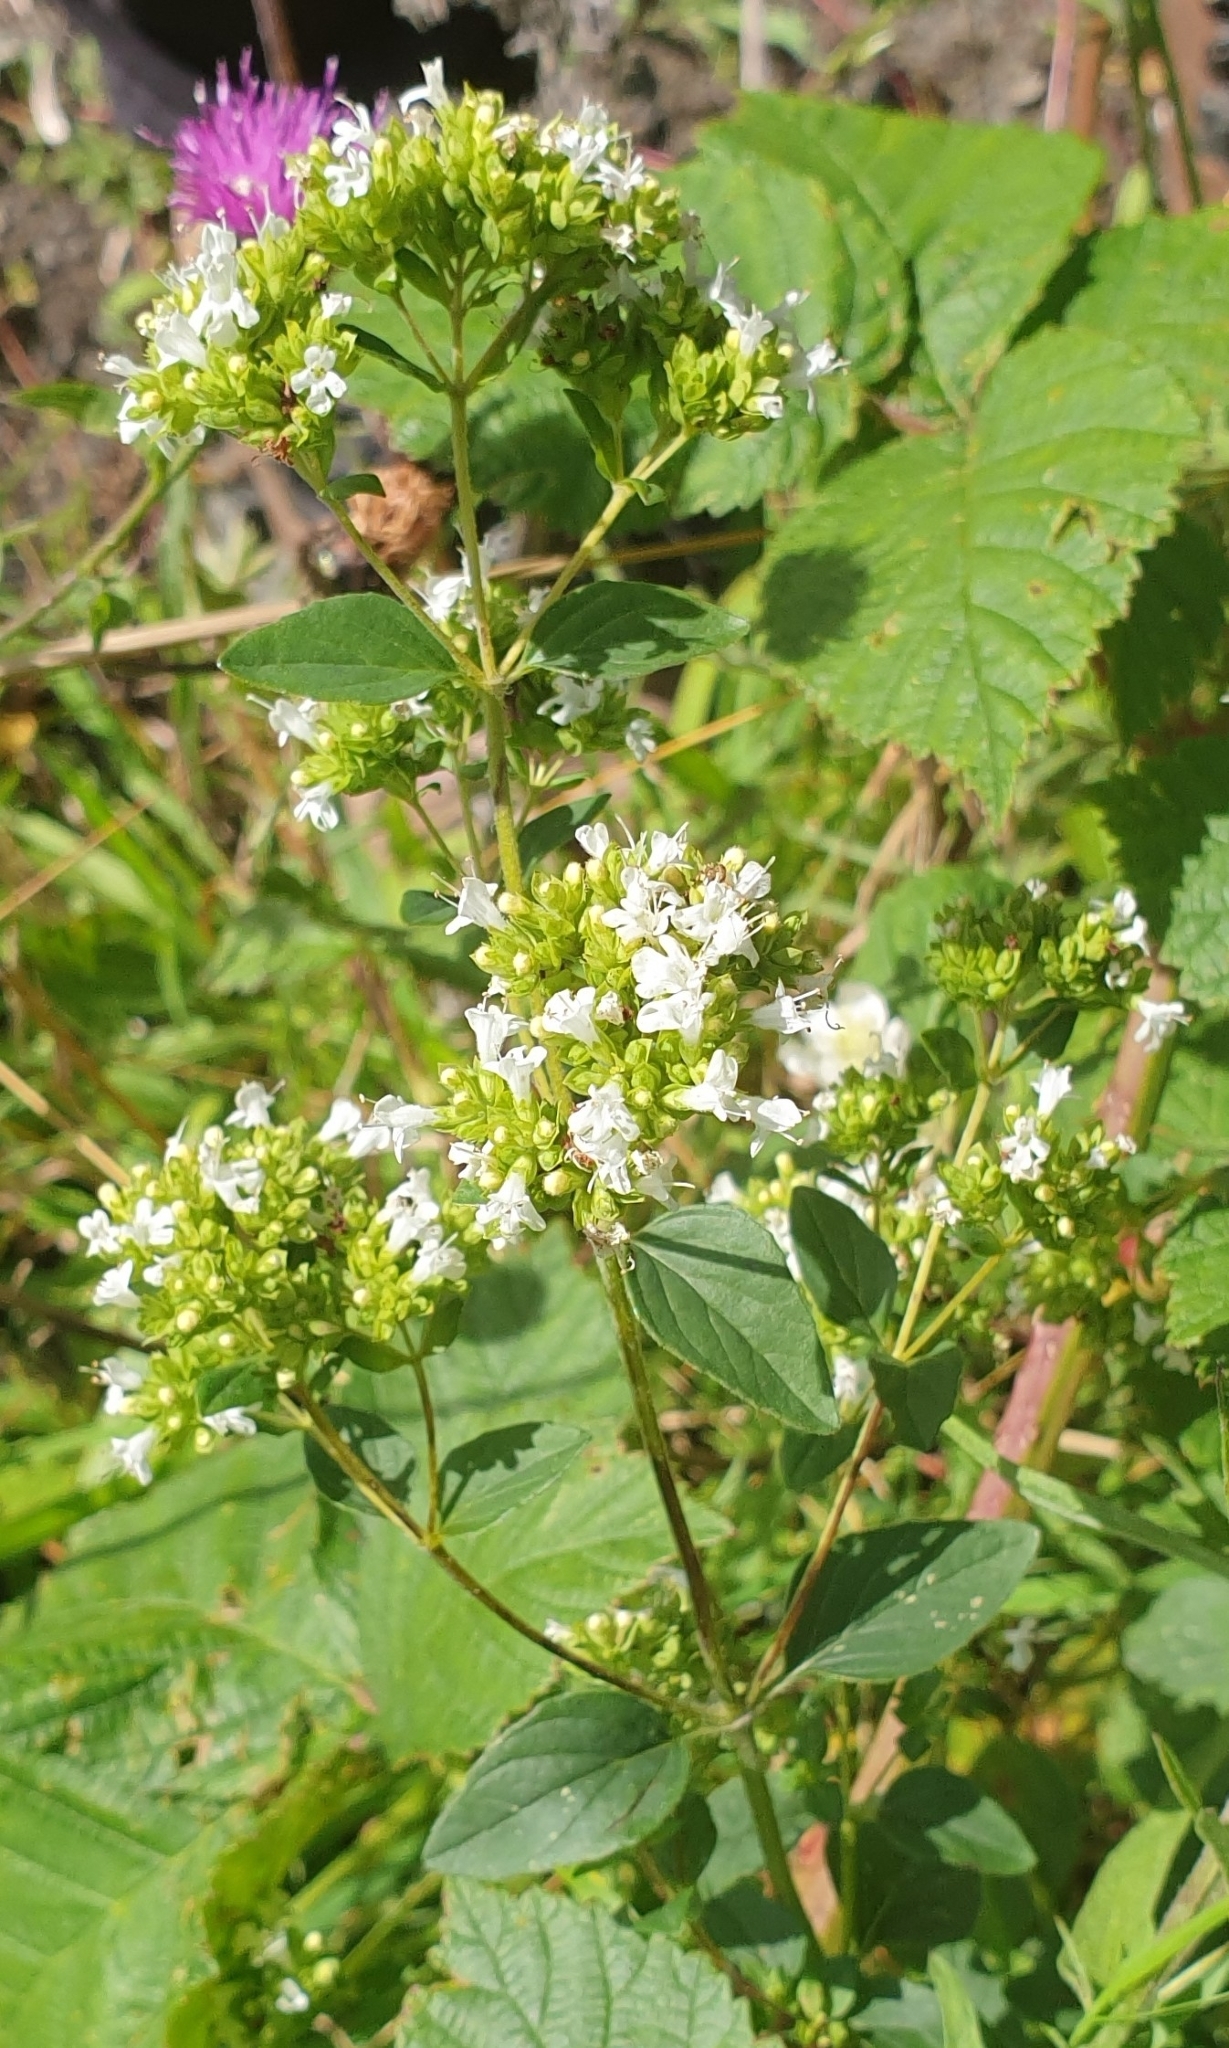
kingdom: Plantae
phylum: Tracheophyta
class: Magnoliopsida
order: Lamiales
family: Lamiaceae
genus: Origanum
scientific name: Origanum vulgare
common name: Wild marjoram
